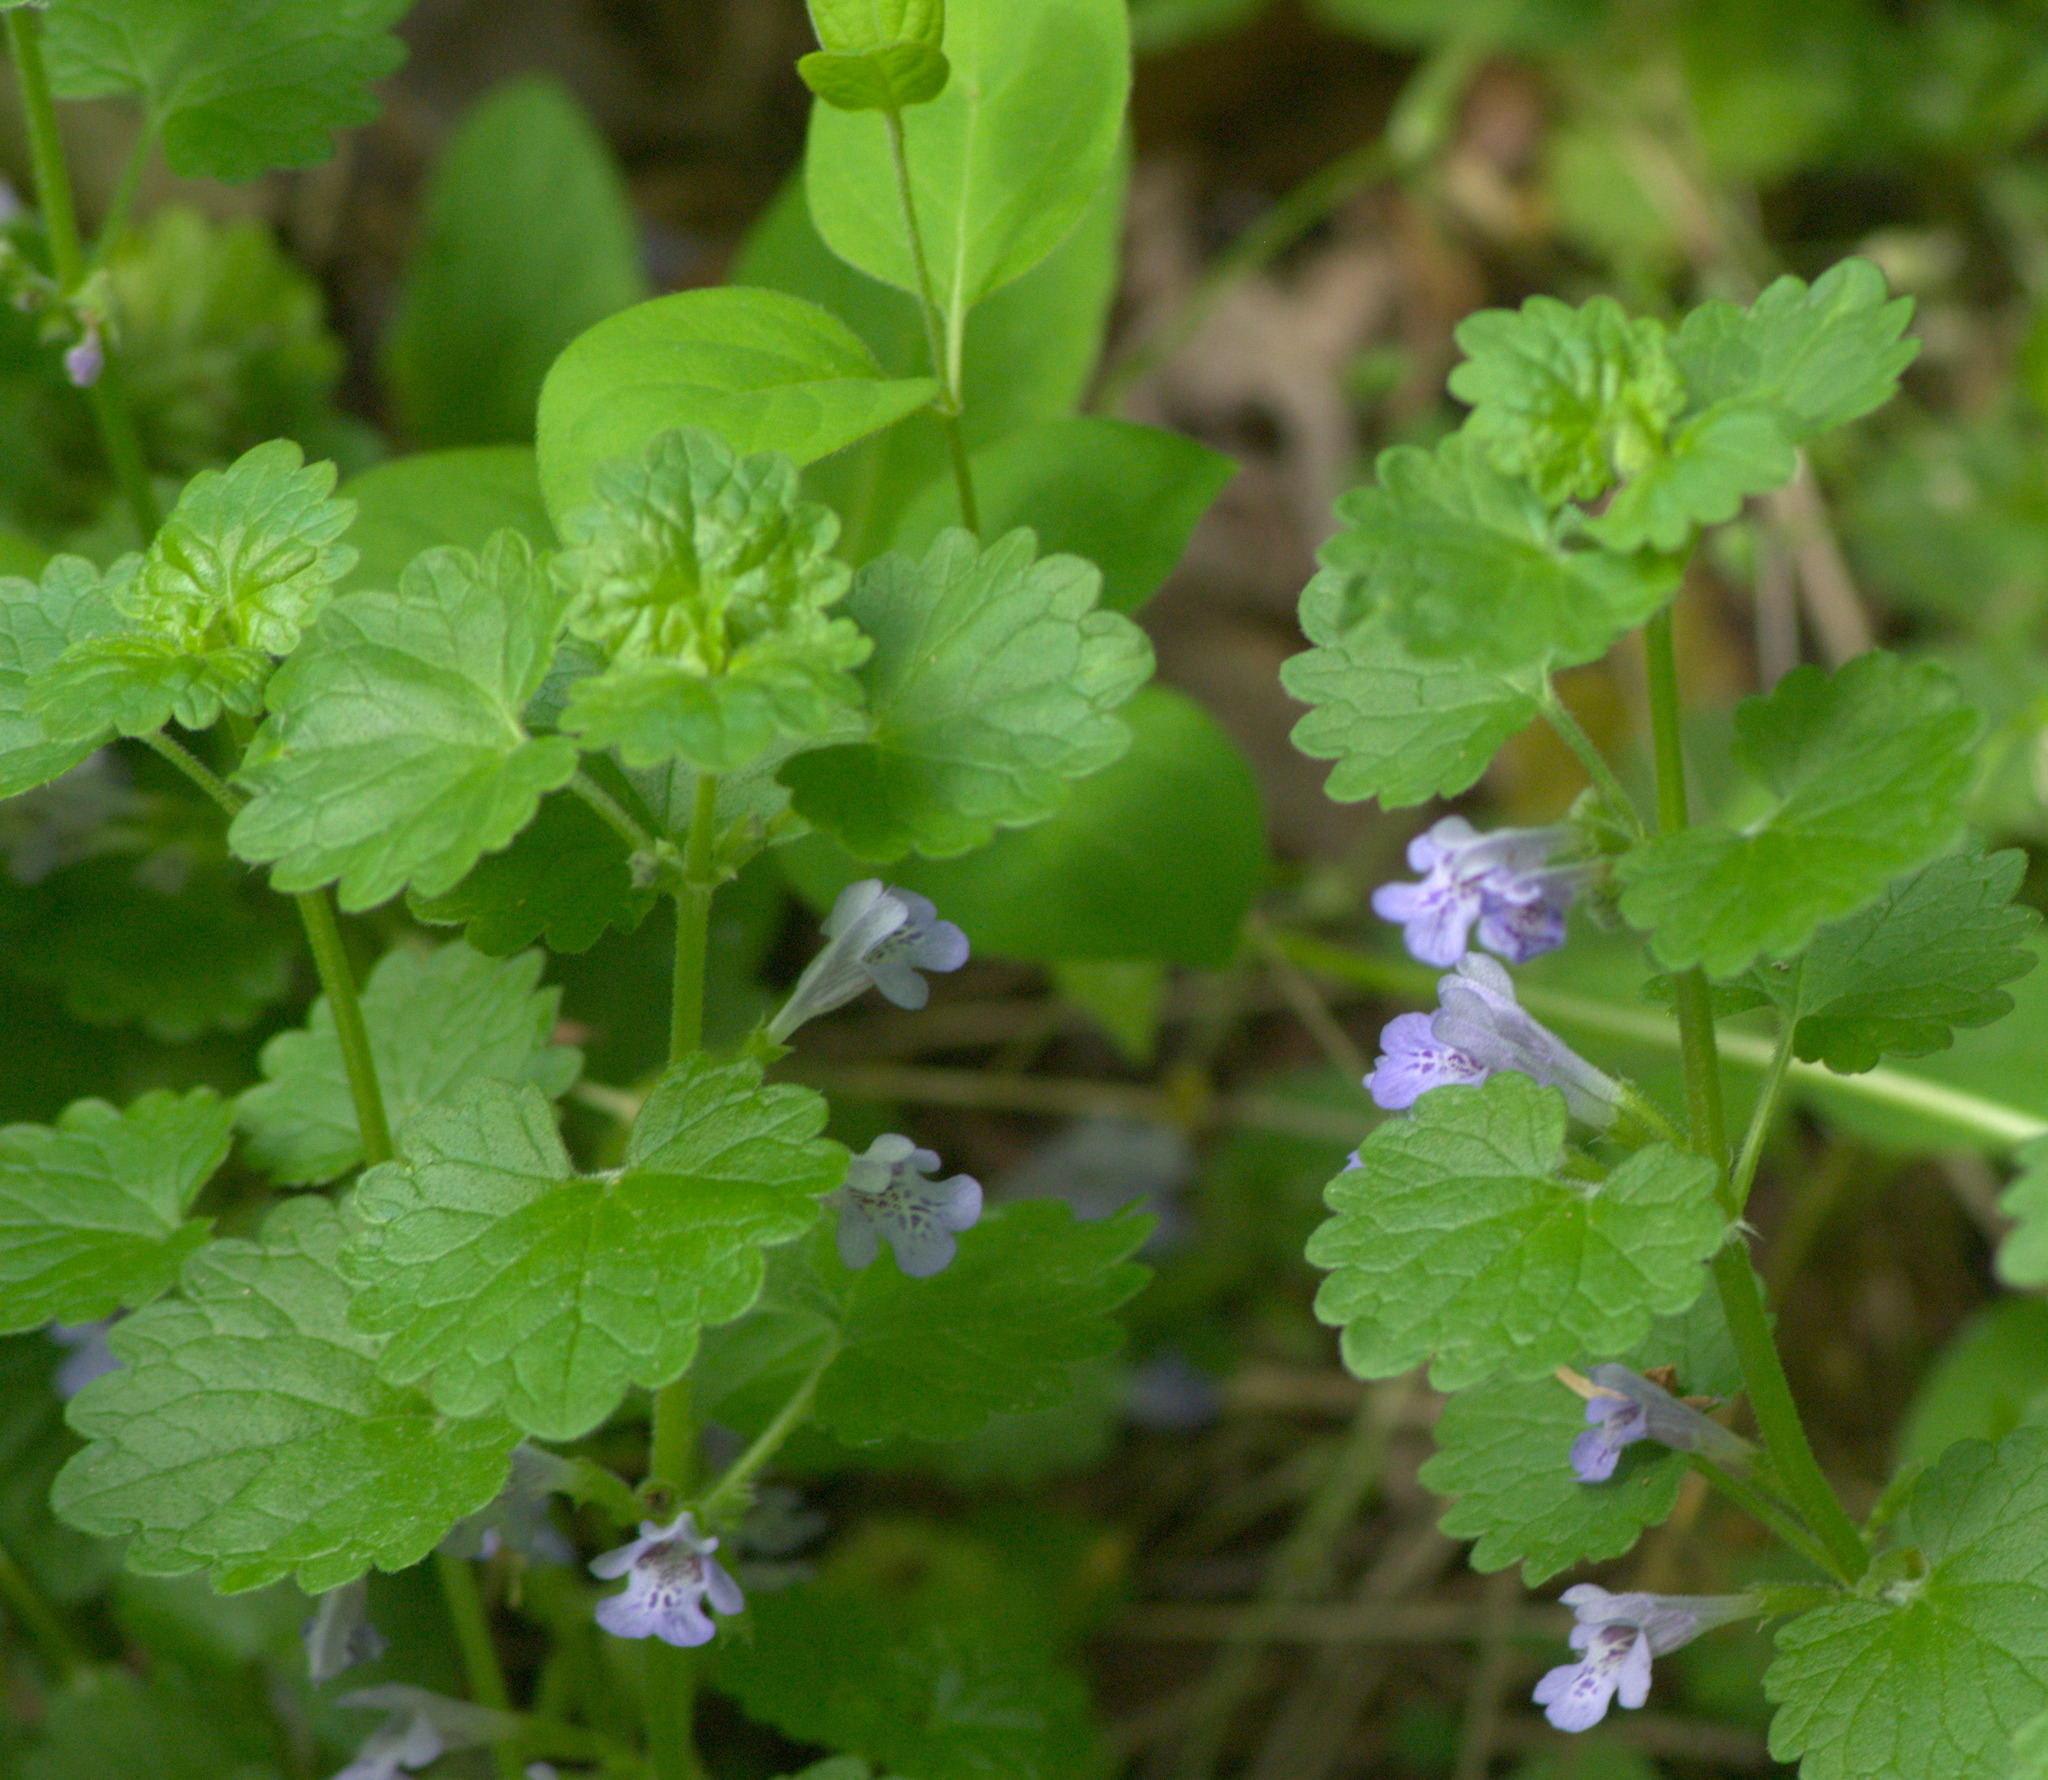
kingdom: Plantae
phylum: Tracheophyta
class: Magnoliopsida
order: Lamiales
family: Lamiaceae
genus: Glechoma
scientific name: Glechoma hederacea
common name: Ground ivy
